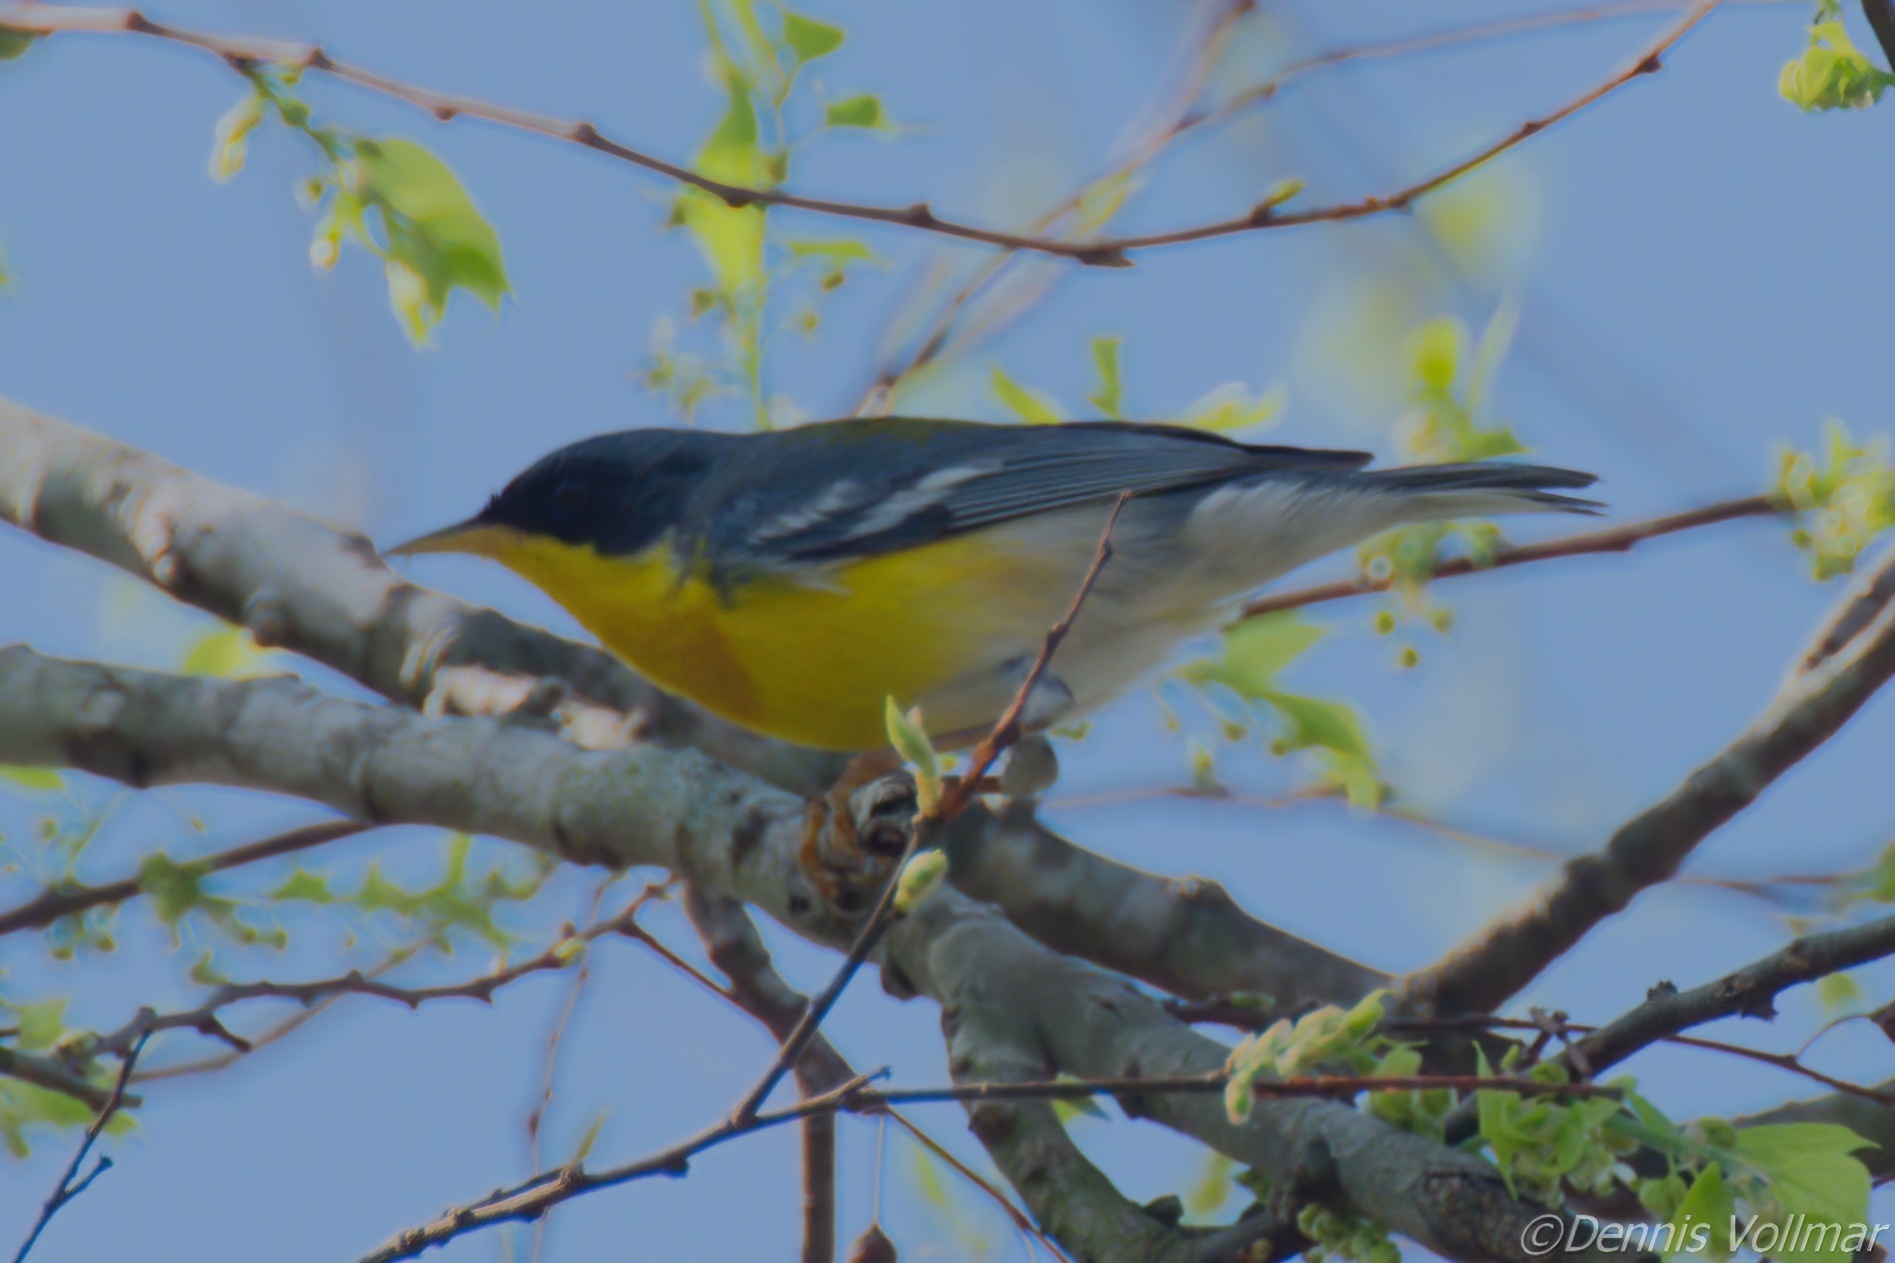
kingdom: Animalia
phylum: Chordata
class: Aves
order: Passeriformes
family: Parulidae
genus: Setophaga
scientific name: Setophaga pitiayumi
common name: Tropical parula
